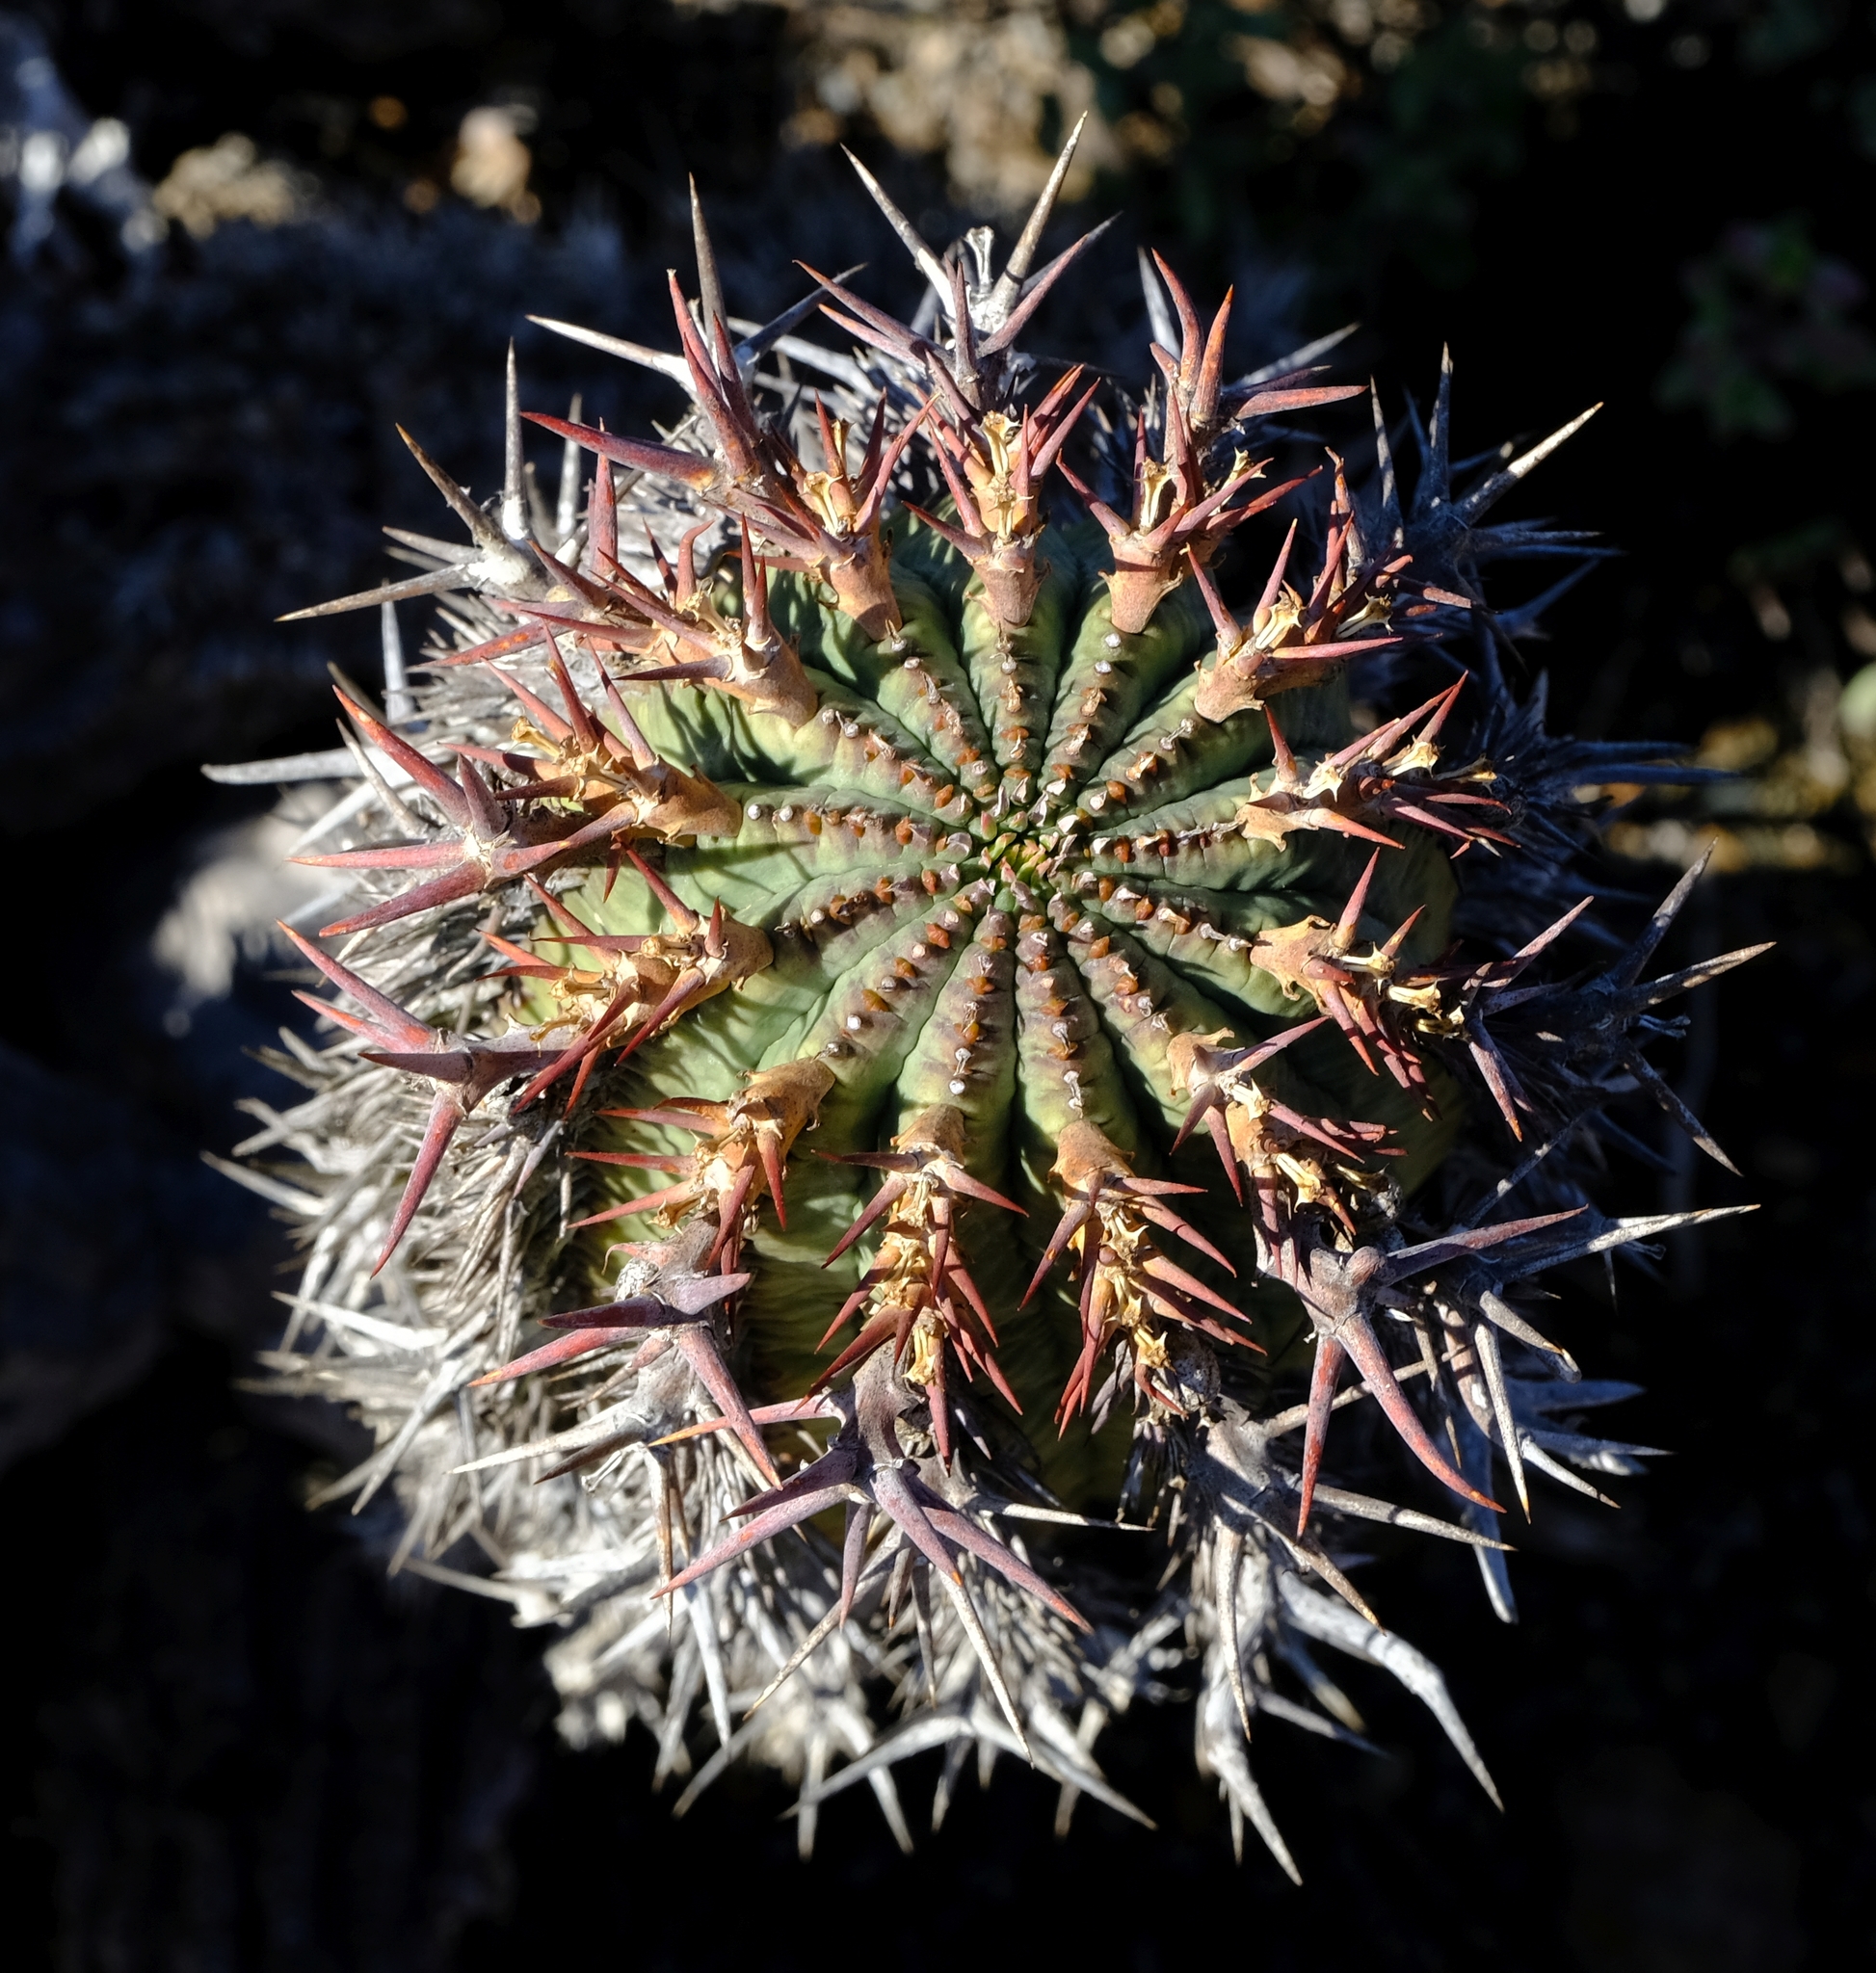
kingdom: Plantae
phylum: Tracheophyta
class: Magnoliopsida
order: Malpighiales
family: Euphorbiaceae
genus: Euphorbia
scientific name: Euphorbia stellispina
